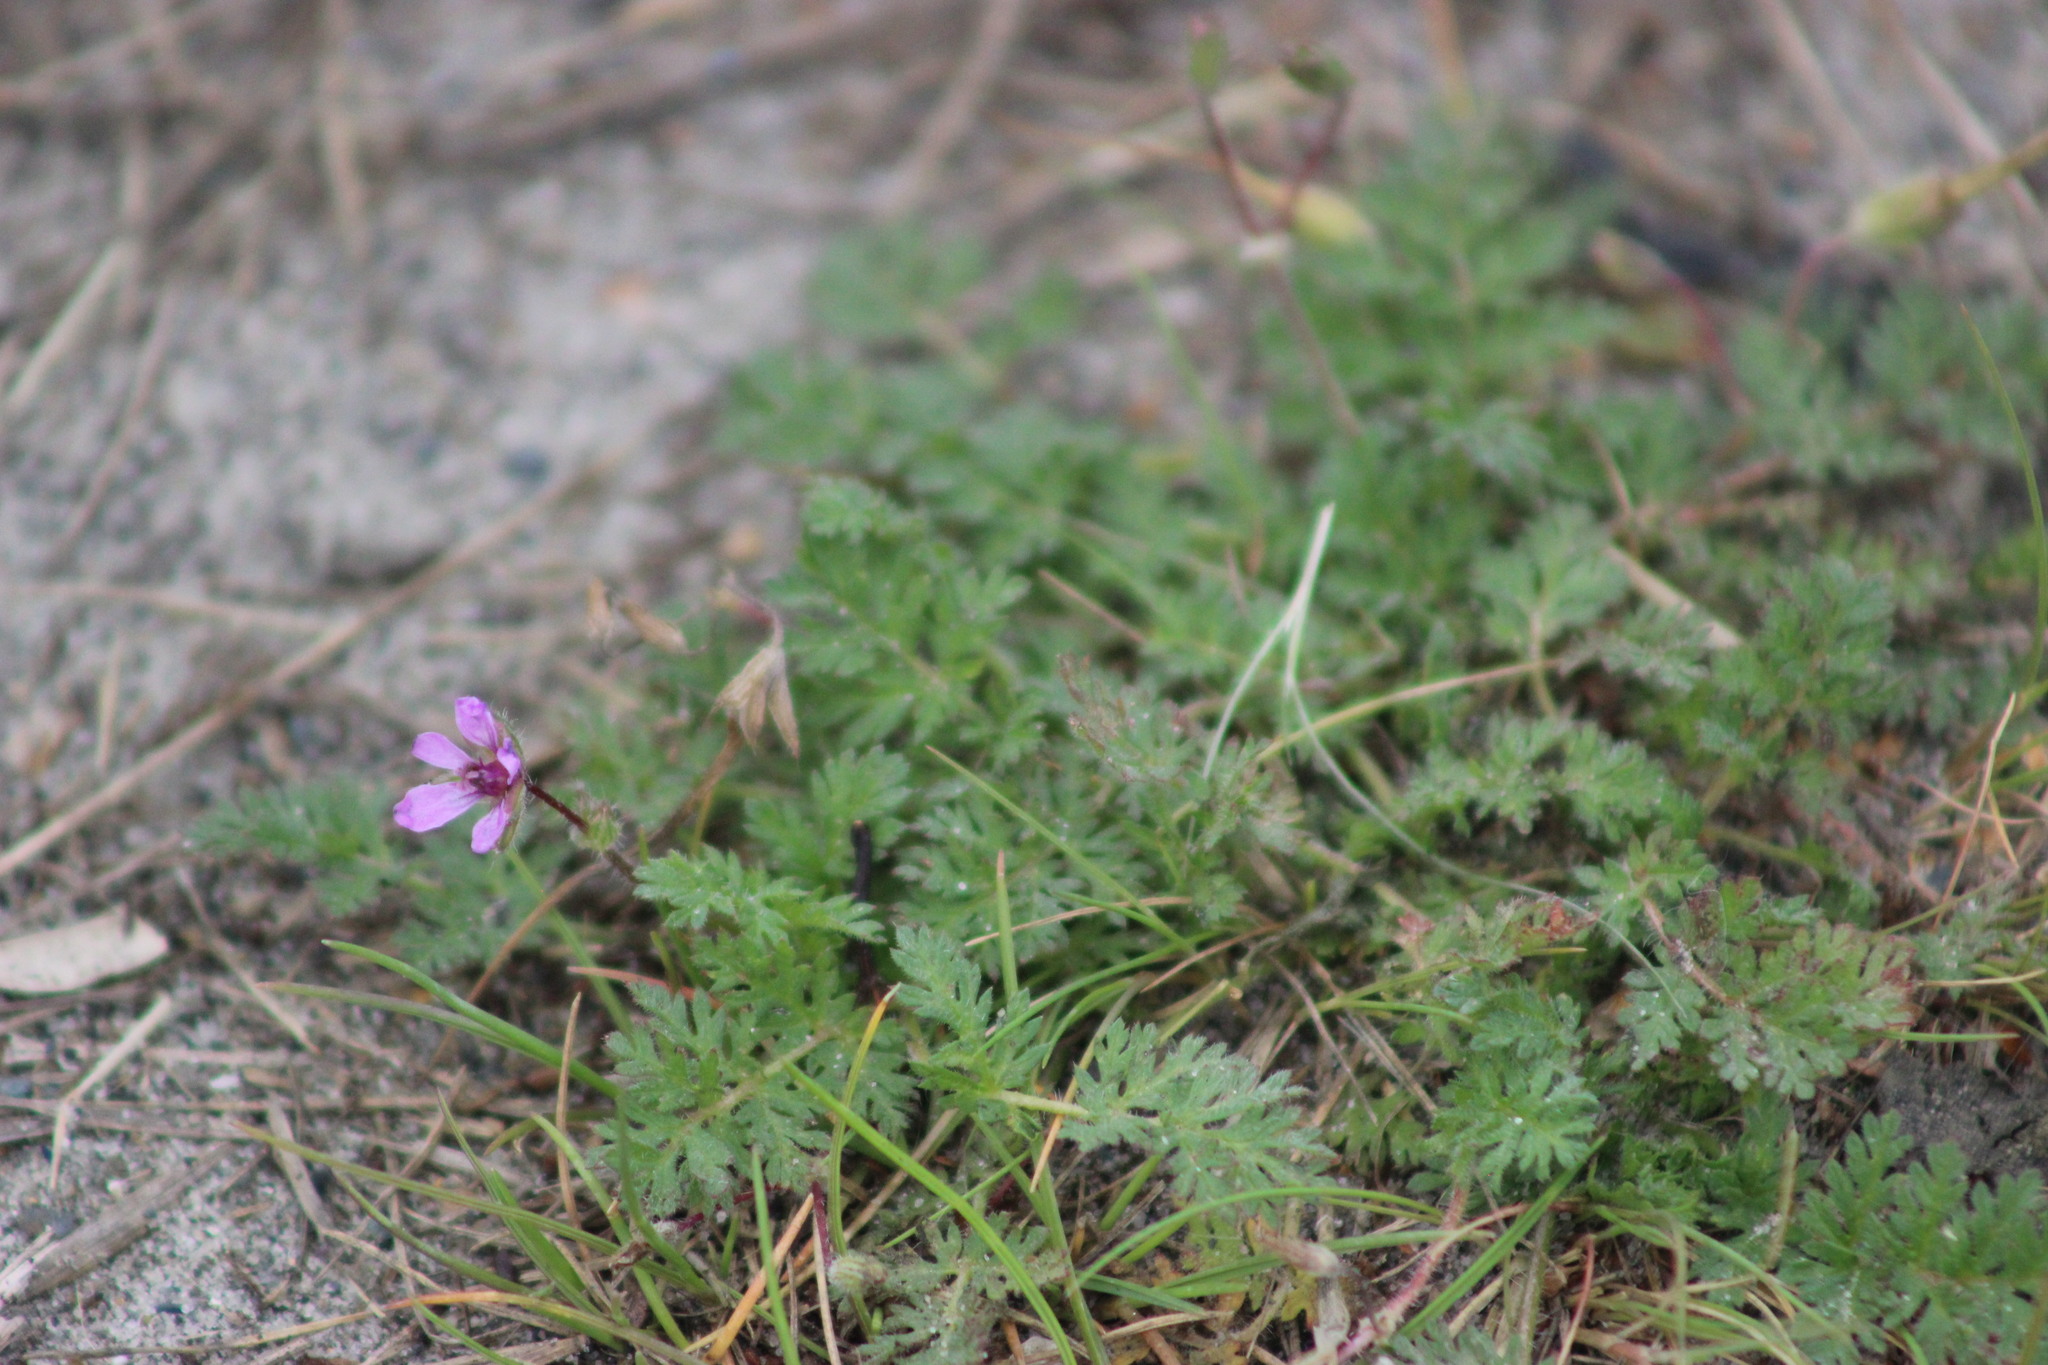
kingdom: Plantae
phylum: Tracheophyta
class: Magnoliopsida
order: Geraniales
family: Geraniaceae
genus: Erodium
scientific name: Erodium cicutarium
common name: Common stork's-bill
